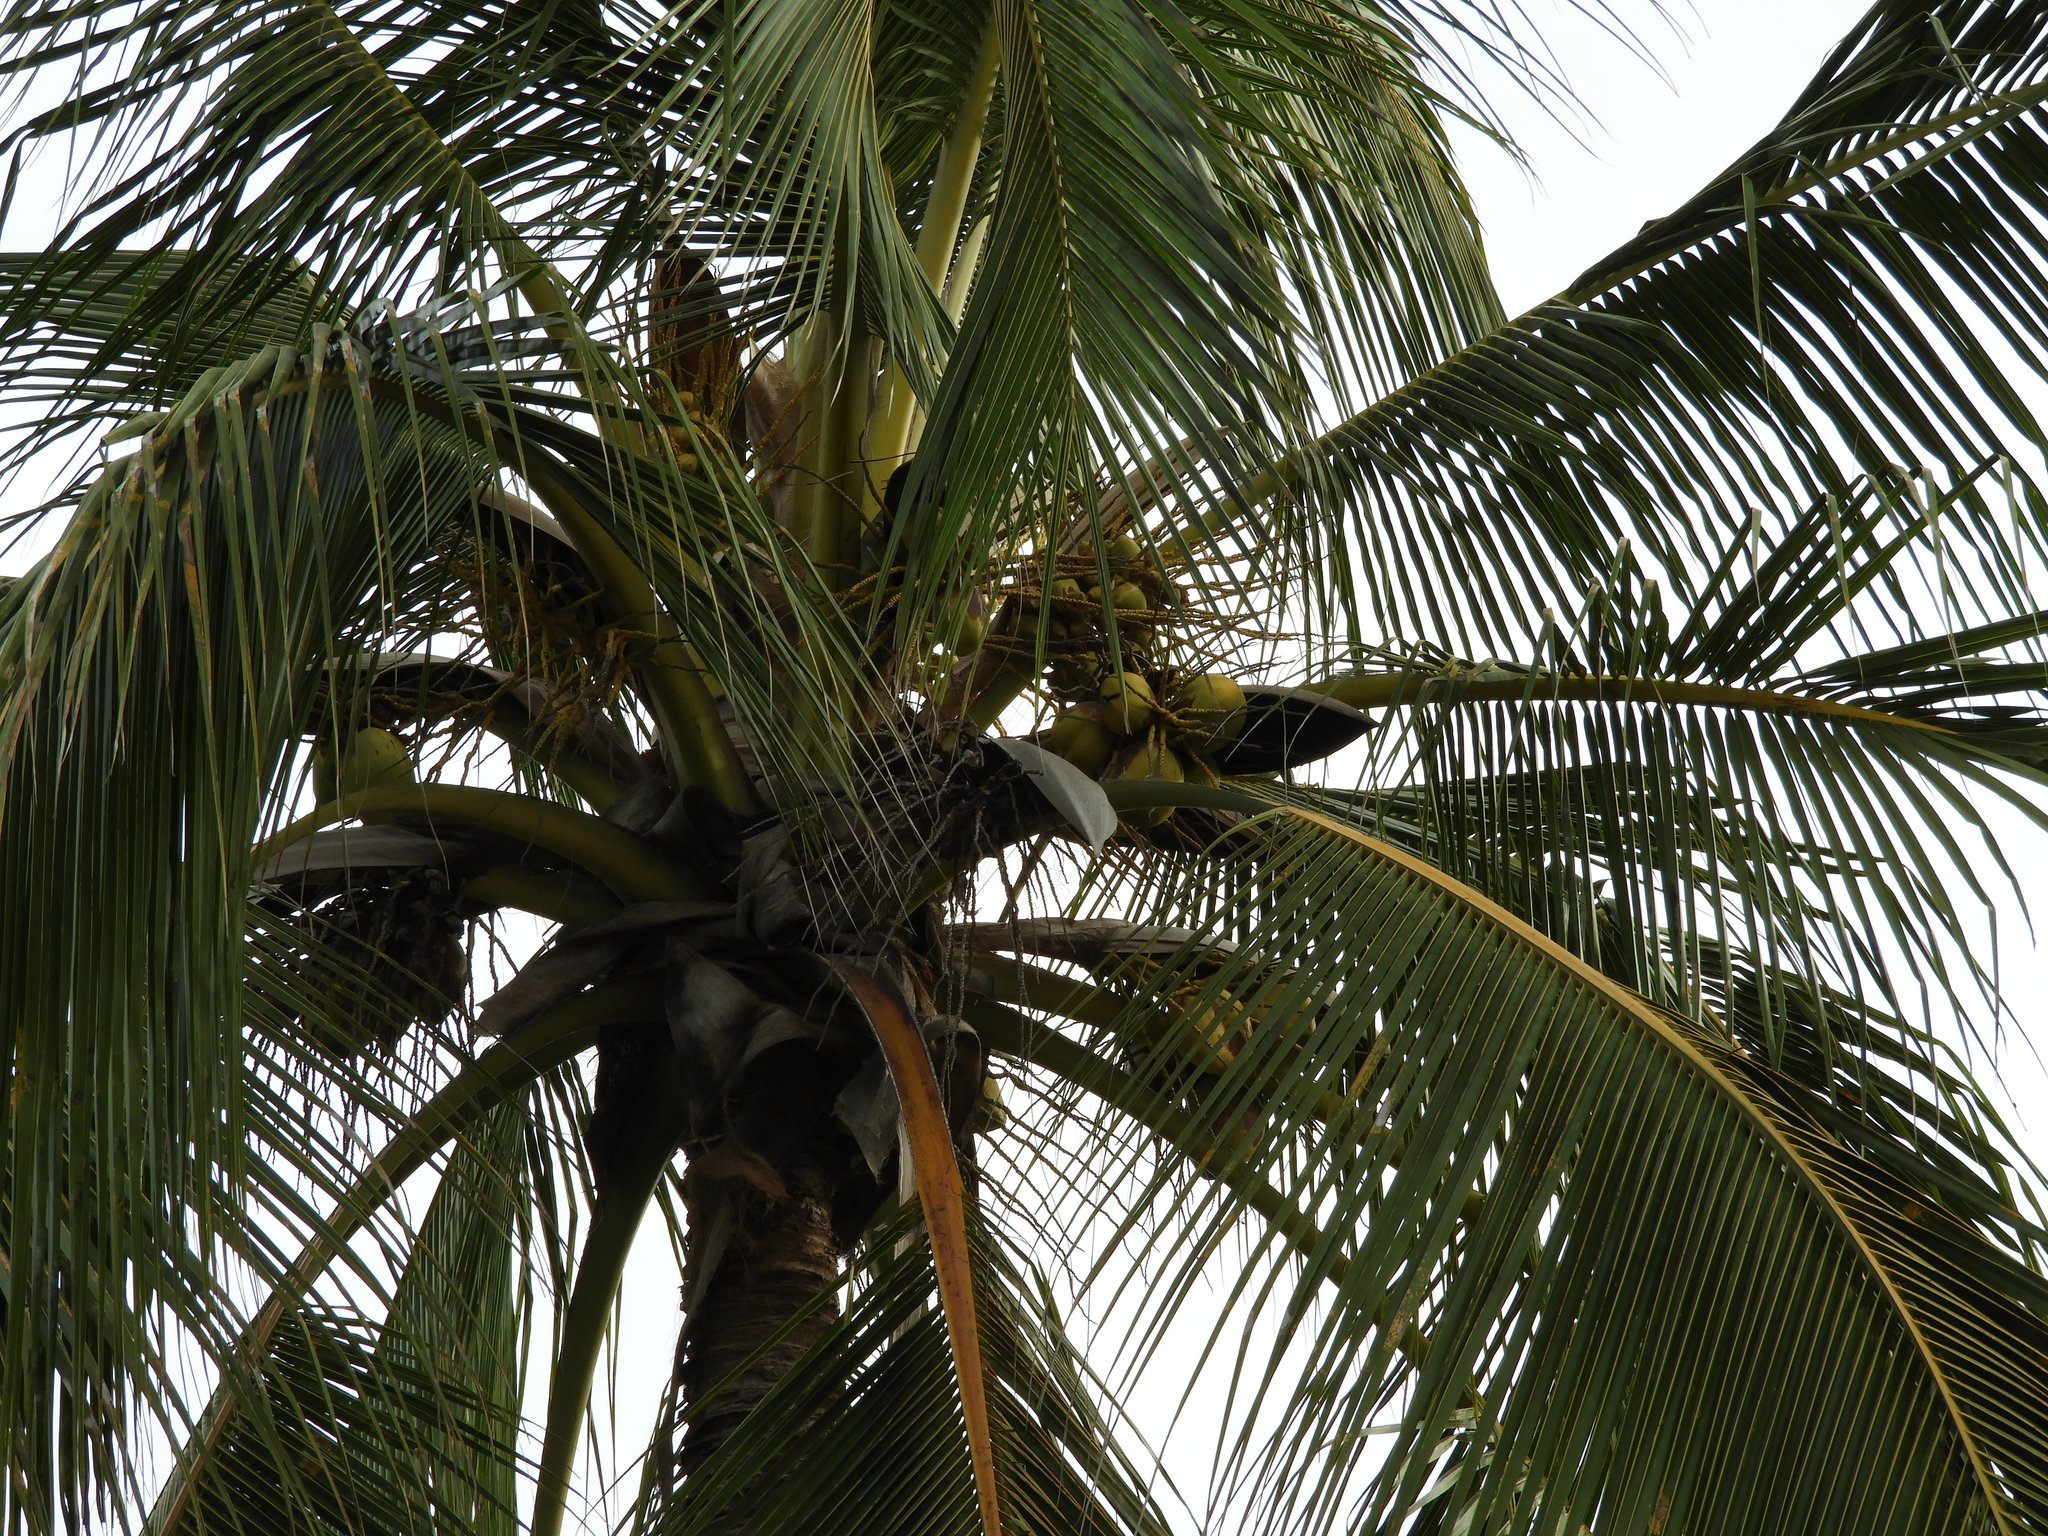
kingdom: Plantae
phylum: Tracheophyta
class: Liliopsida
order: Arecales
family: Arecaceae
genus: Cocos
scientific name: Cocos nucifera
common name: Coconut palm
